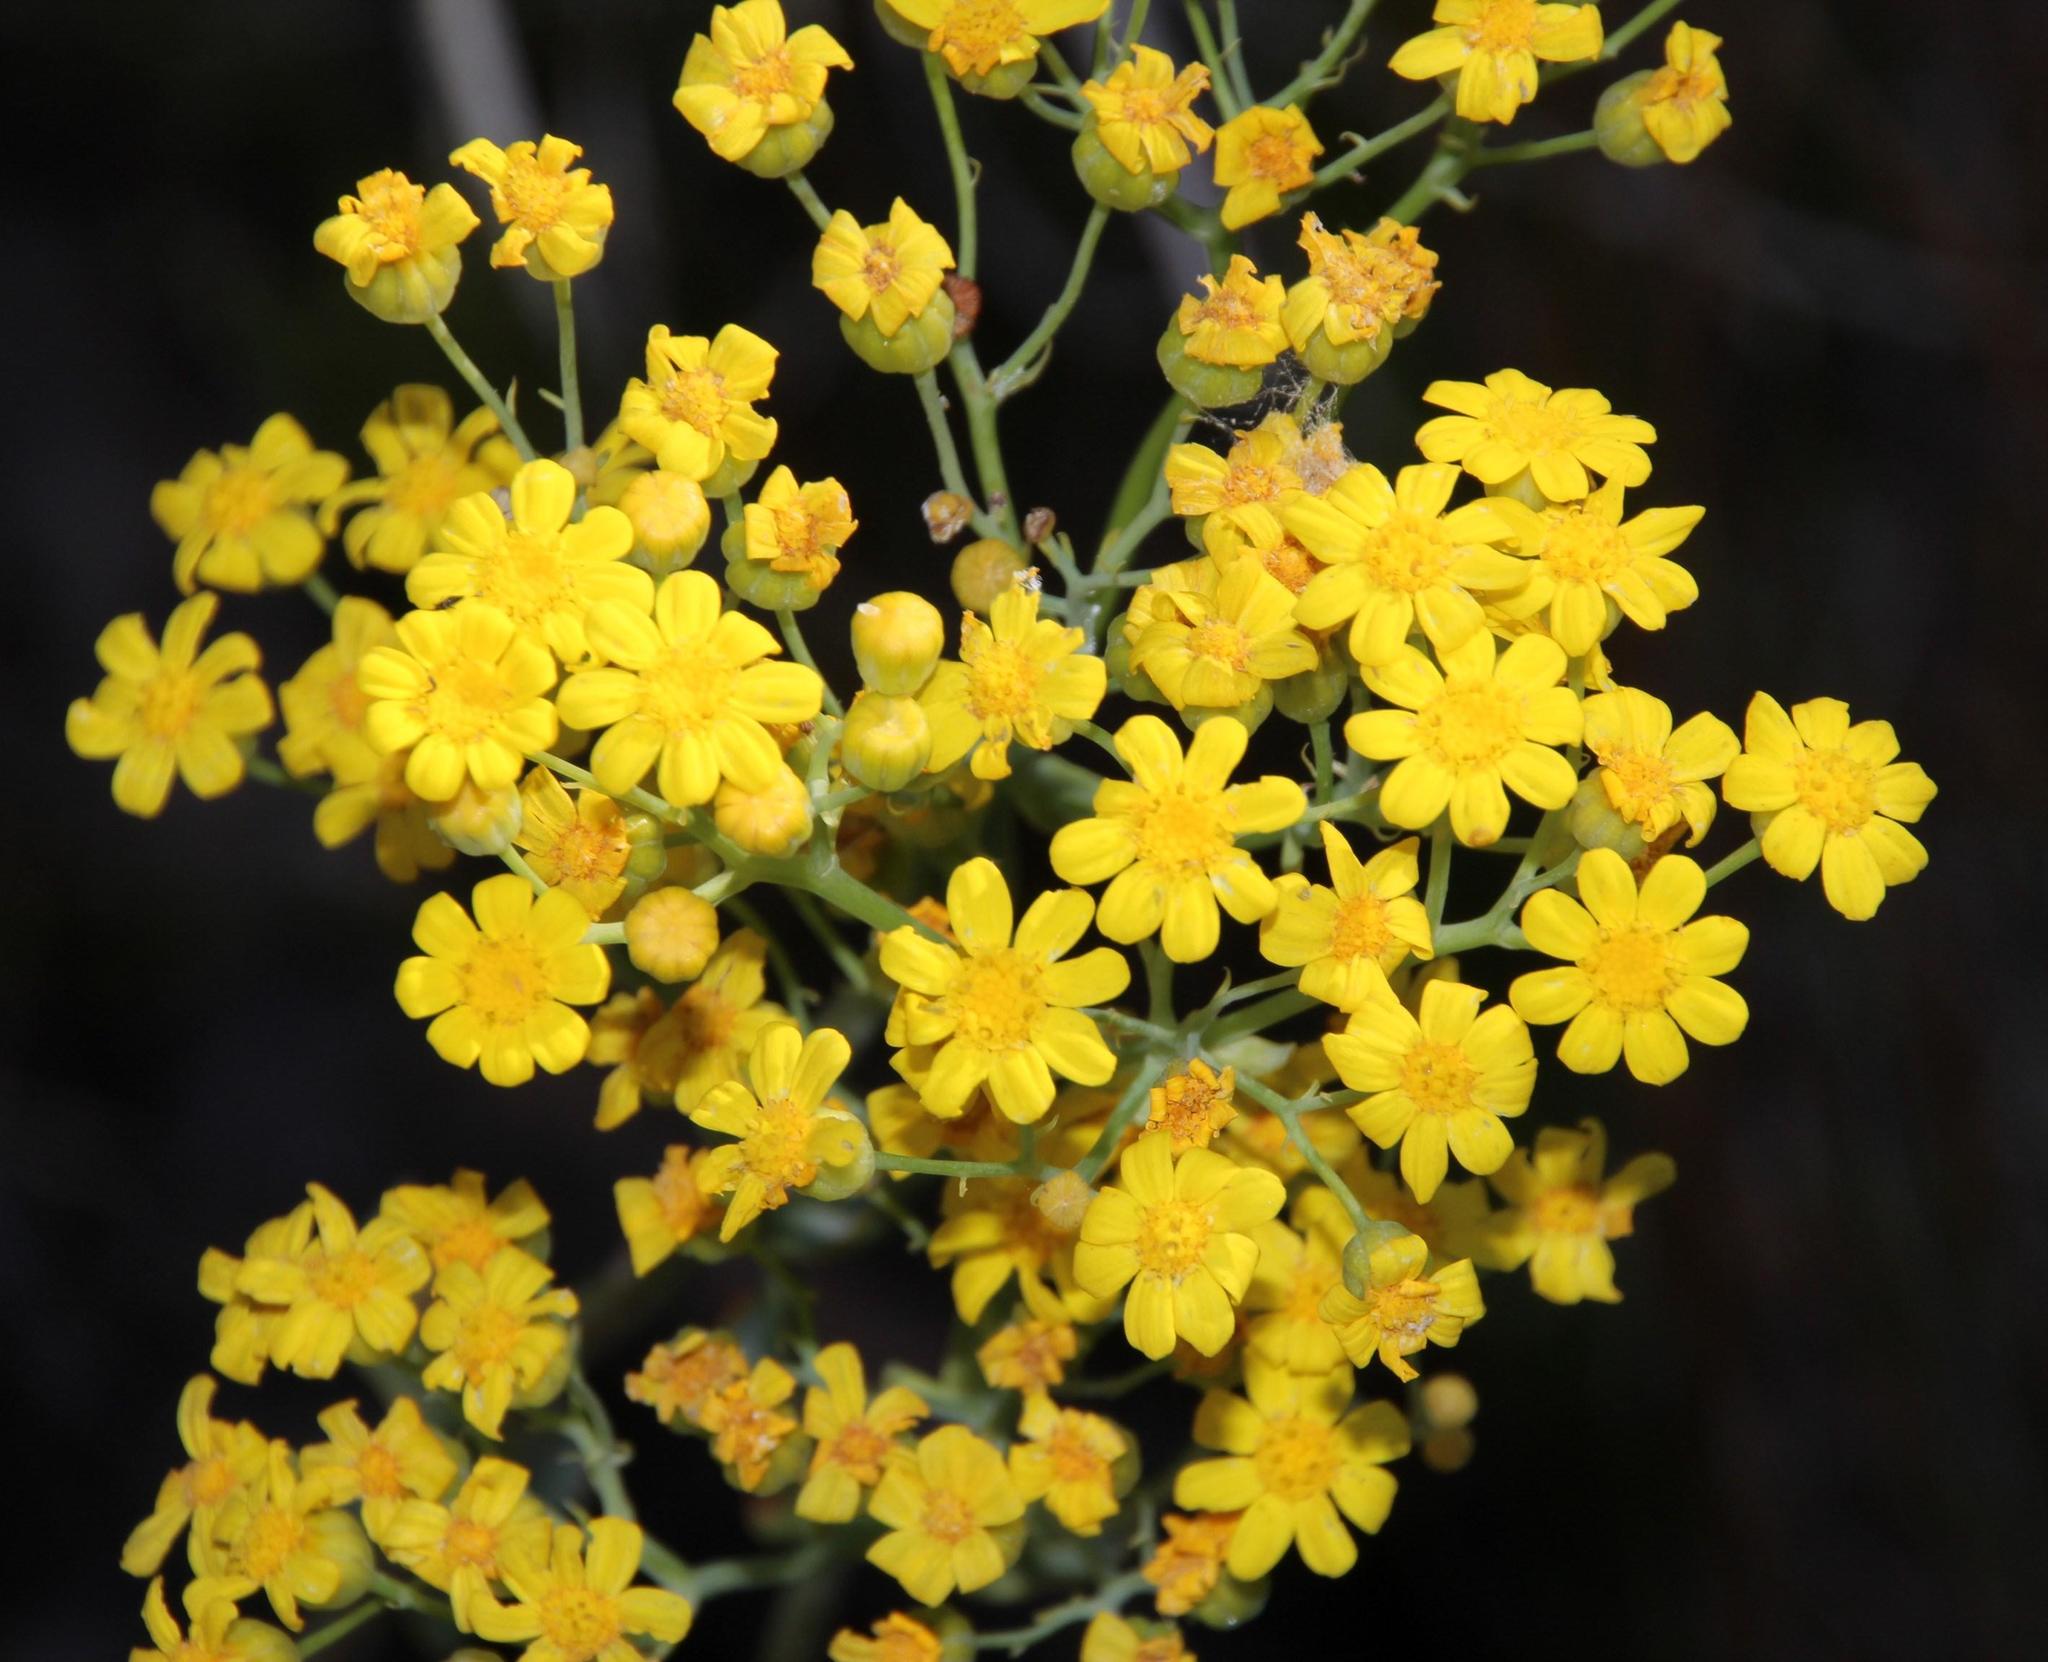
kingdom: Plantae
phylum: Tracheophyta
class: Magnoliopsida
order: Asterales
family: Asteraceae
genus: Othonna
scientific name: Othonna parviflora
